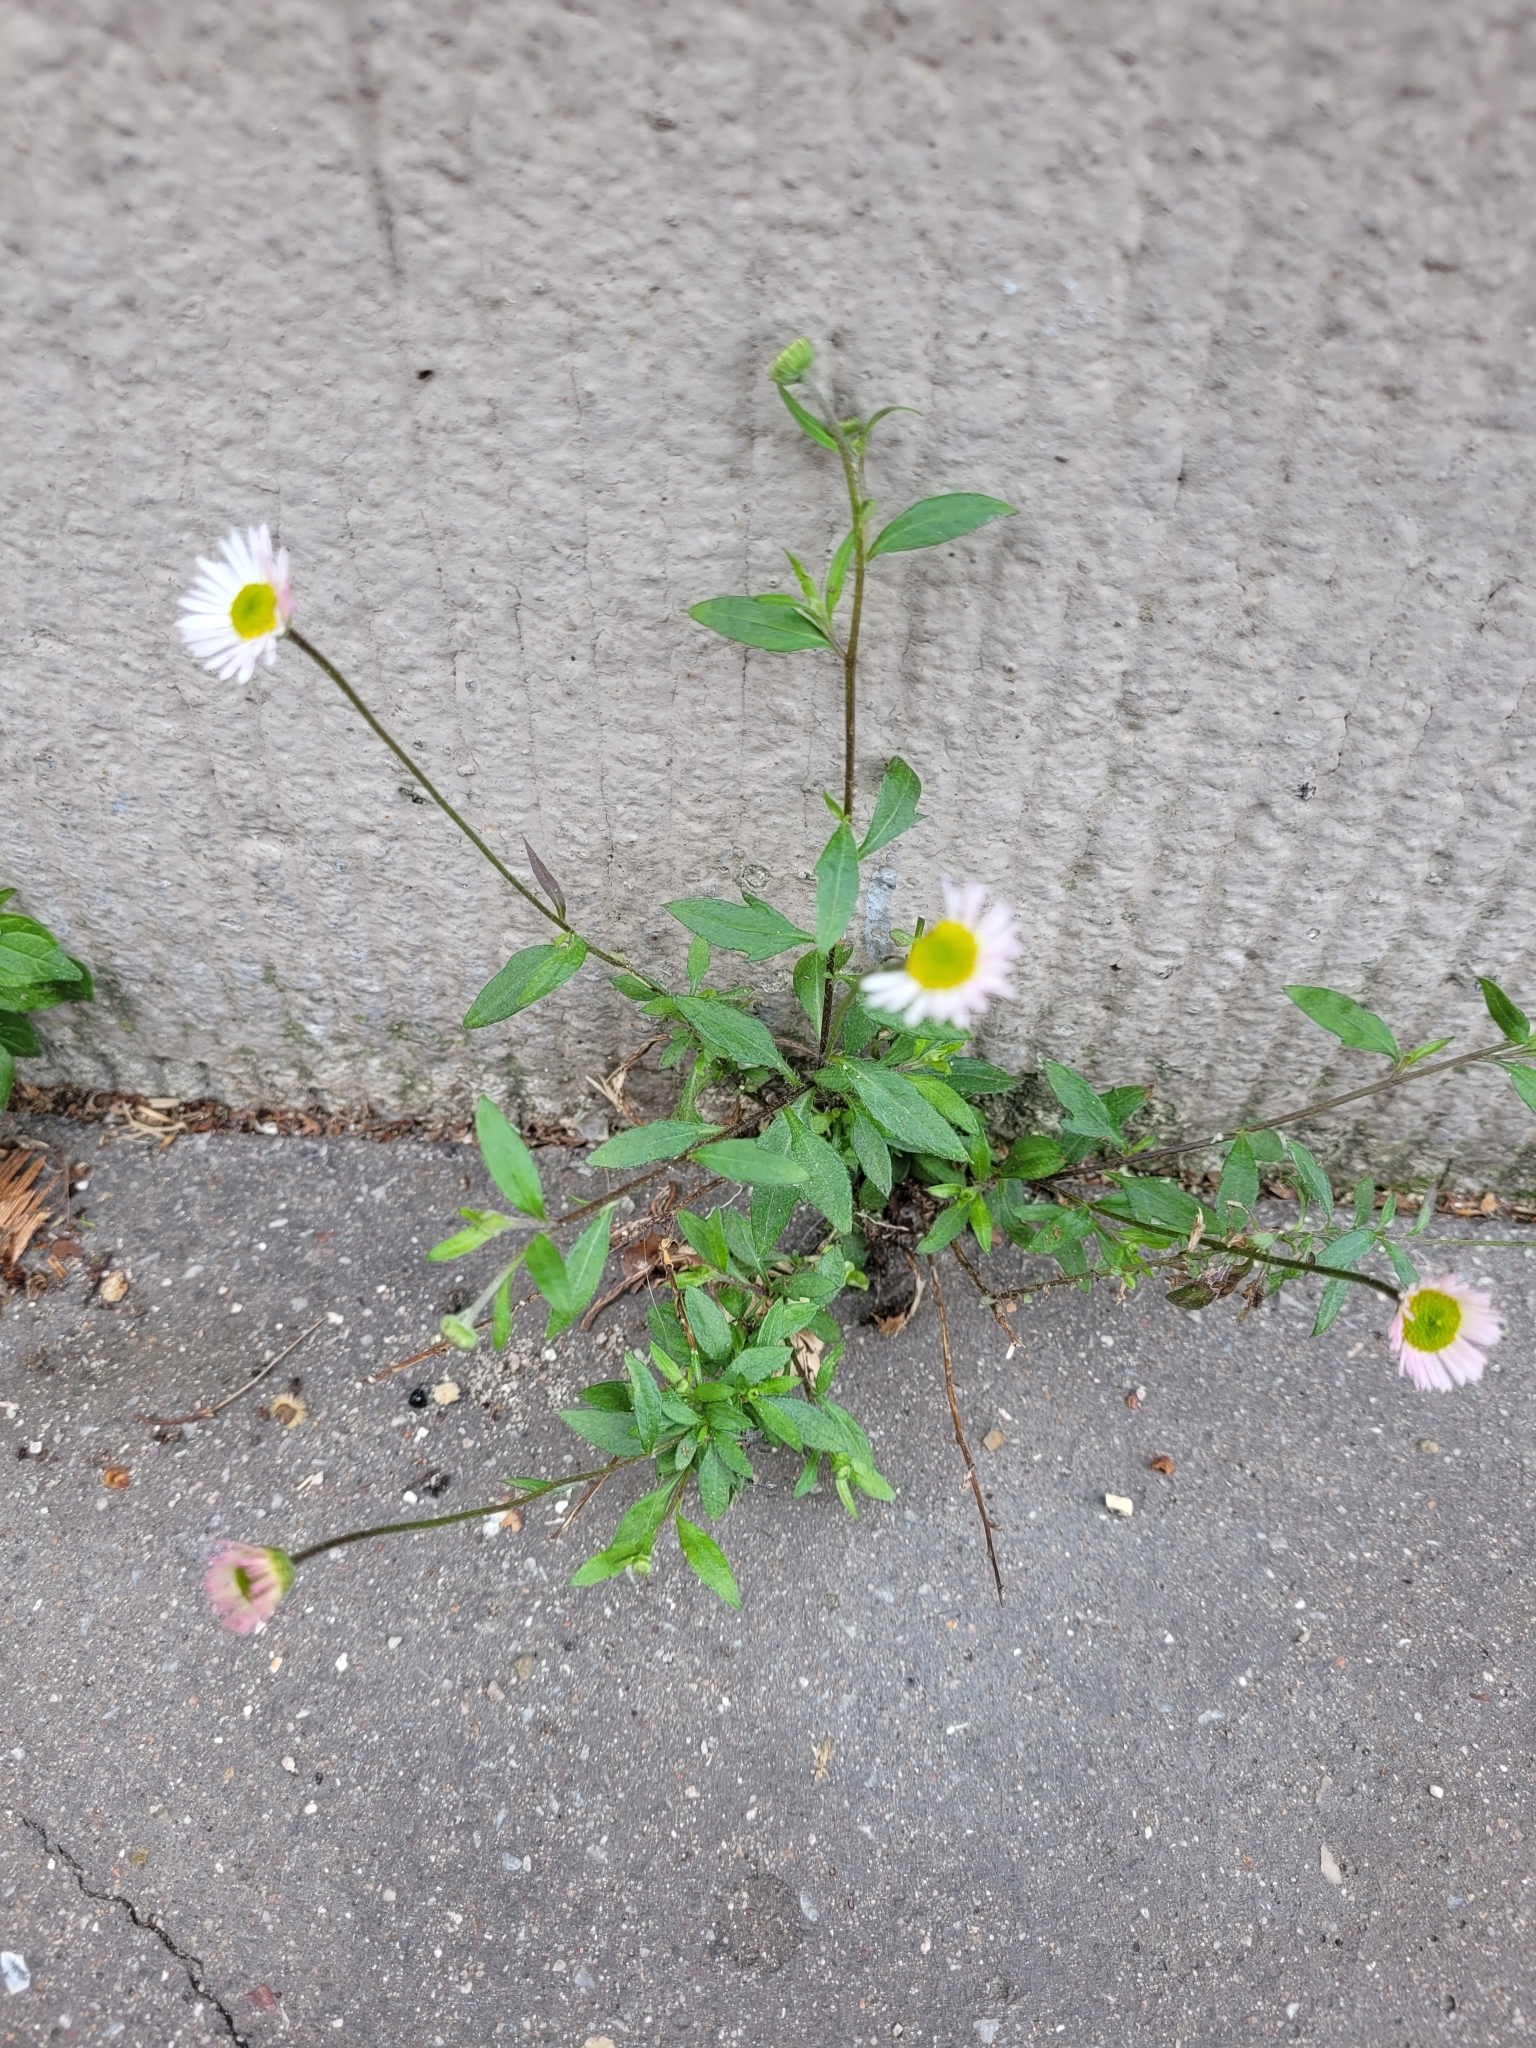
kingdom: Plantae
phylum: Tracheophyta
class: Magnoliopsida
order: Asterales
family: Asteraceae
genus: Erigeron
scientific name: Erigeron karvinskianus
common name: Mexican fleabane
